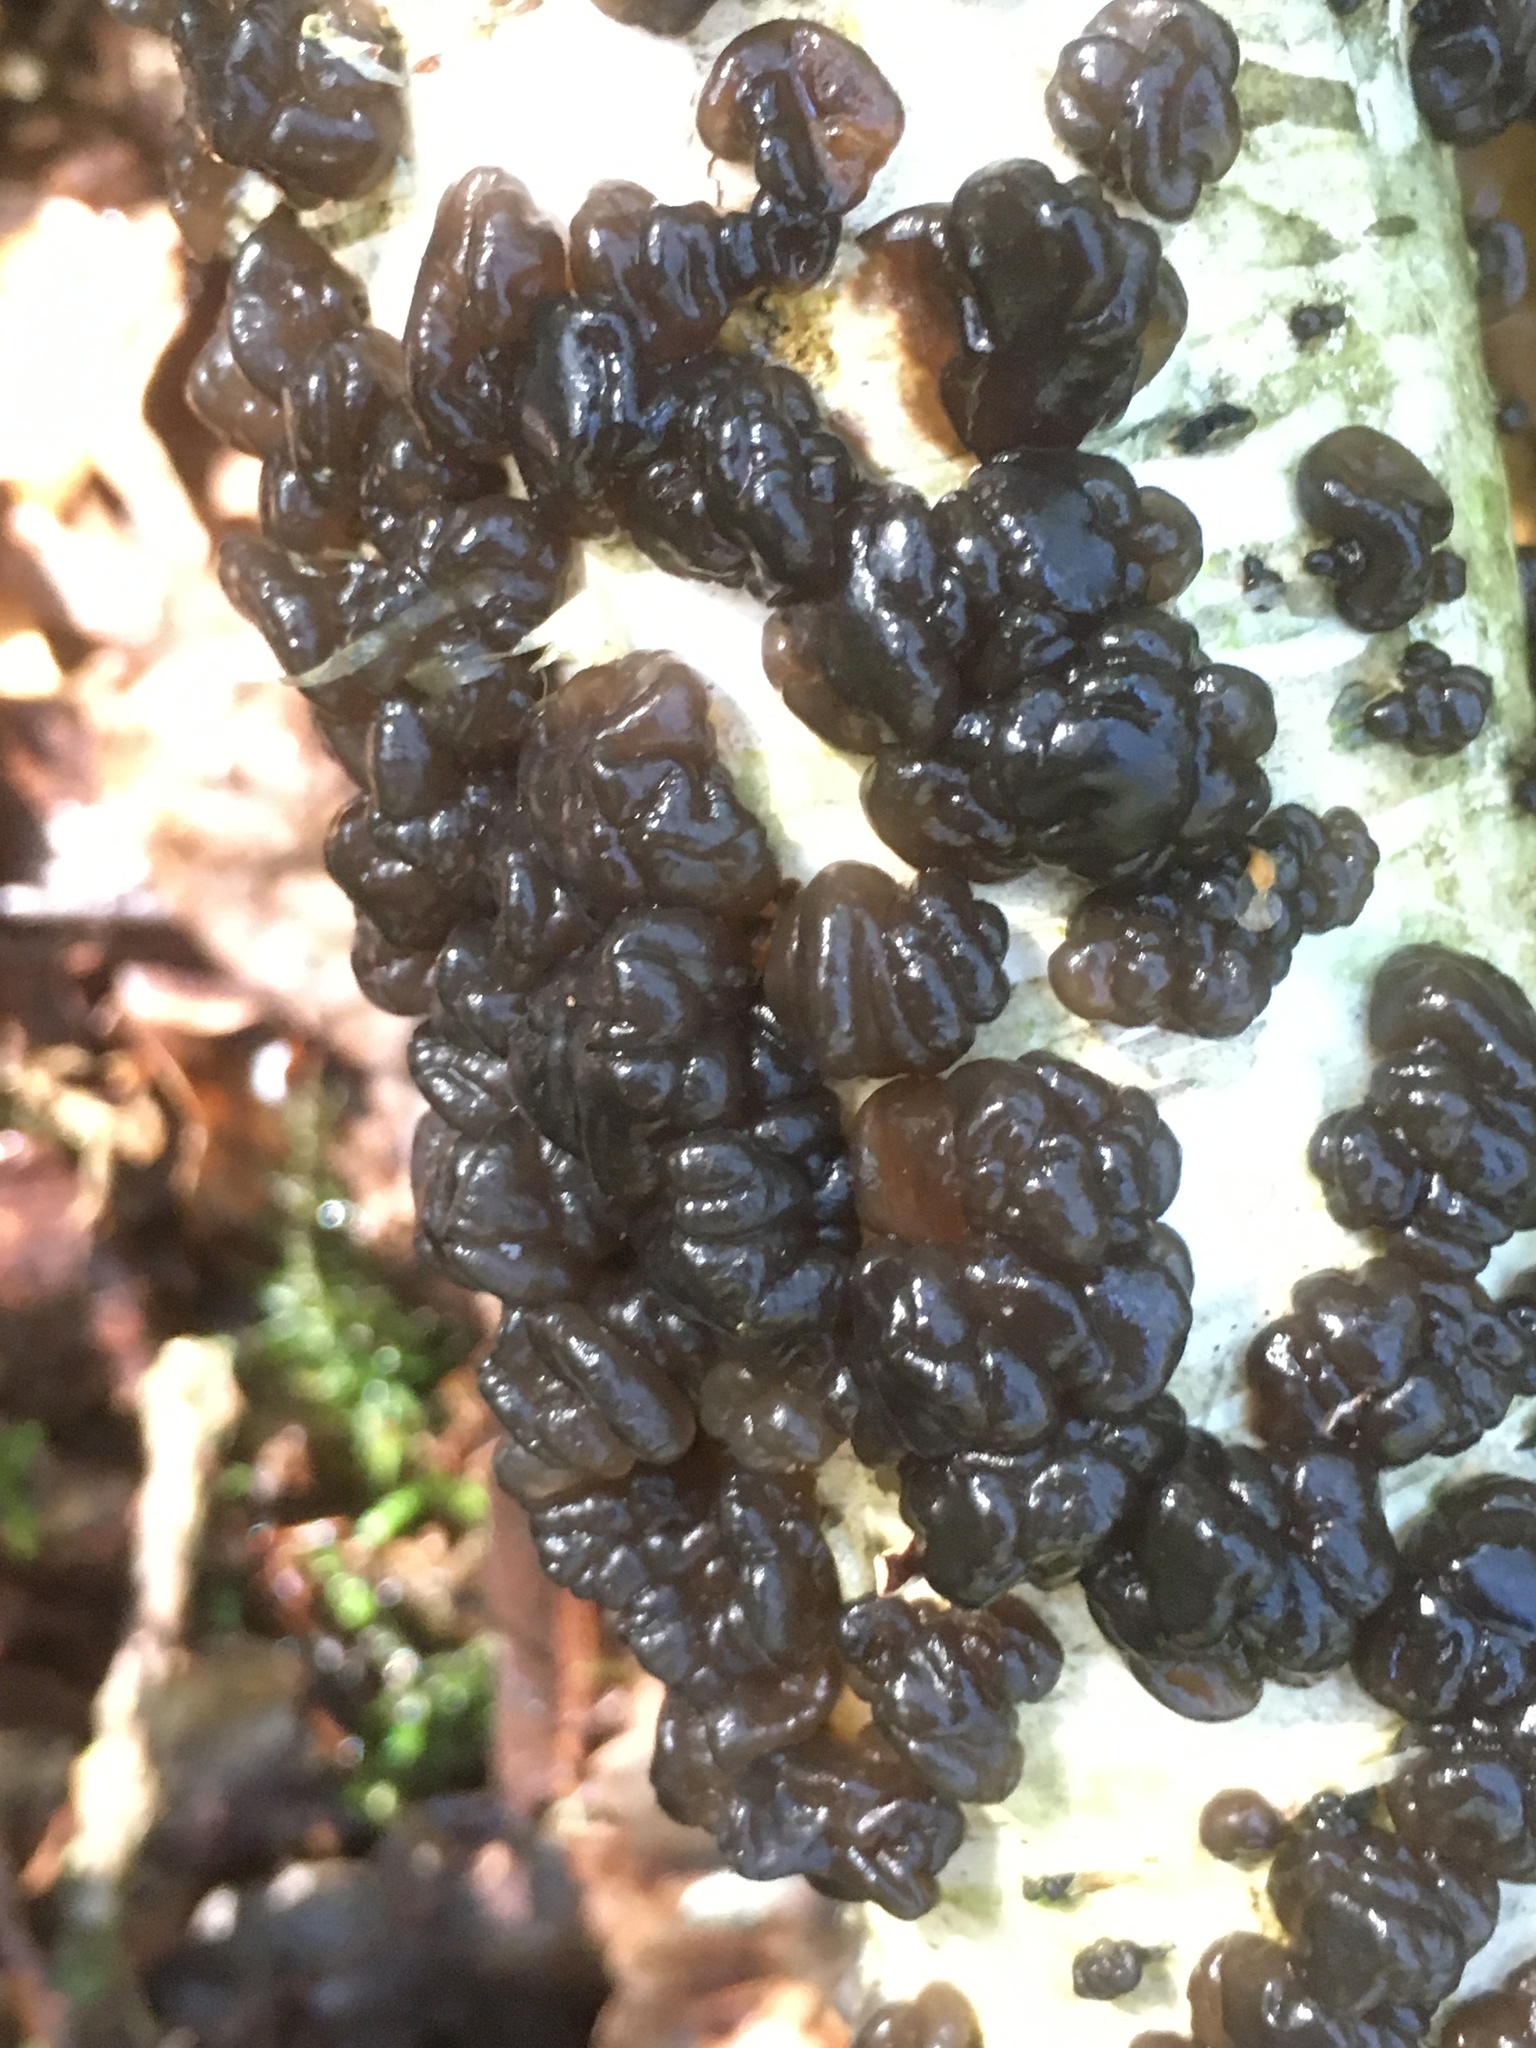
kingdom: Fungi
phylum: Basidiomycota
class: Agaricomycetes
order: Auriculariales
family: Auriculariaceae
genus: Exidia
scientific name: Exidia glandulosa
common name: Witches' butter
